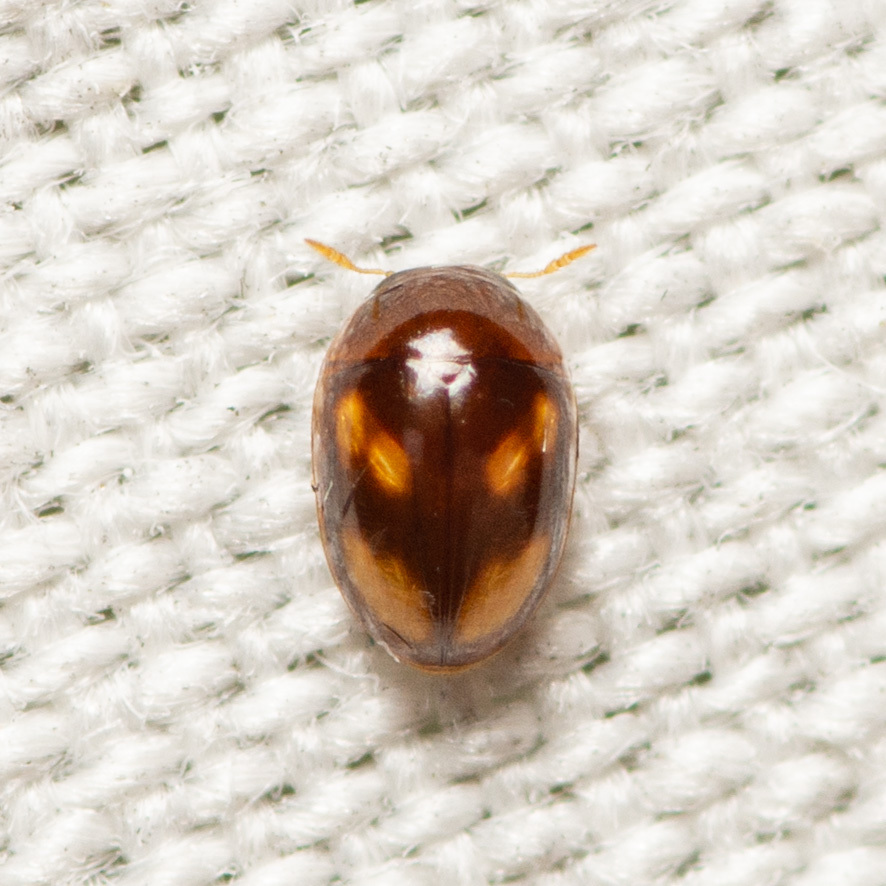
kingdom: Animalia
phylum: Arthropoda
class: Insecta
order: Coleoptera
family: Phalacridae
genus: Neolitochrus
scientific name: Neolitochrus
